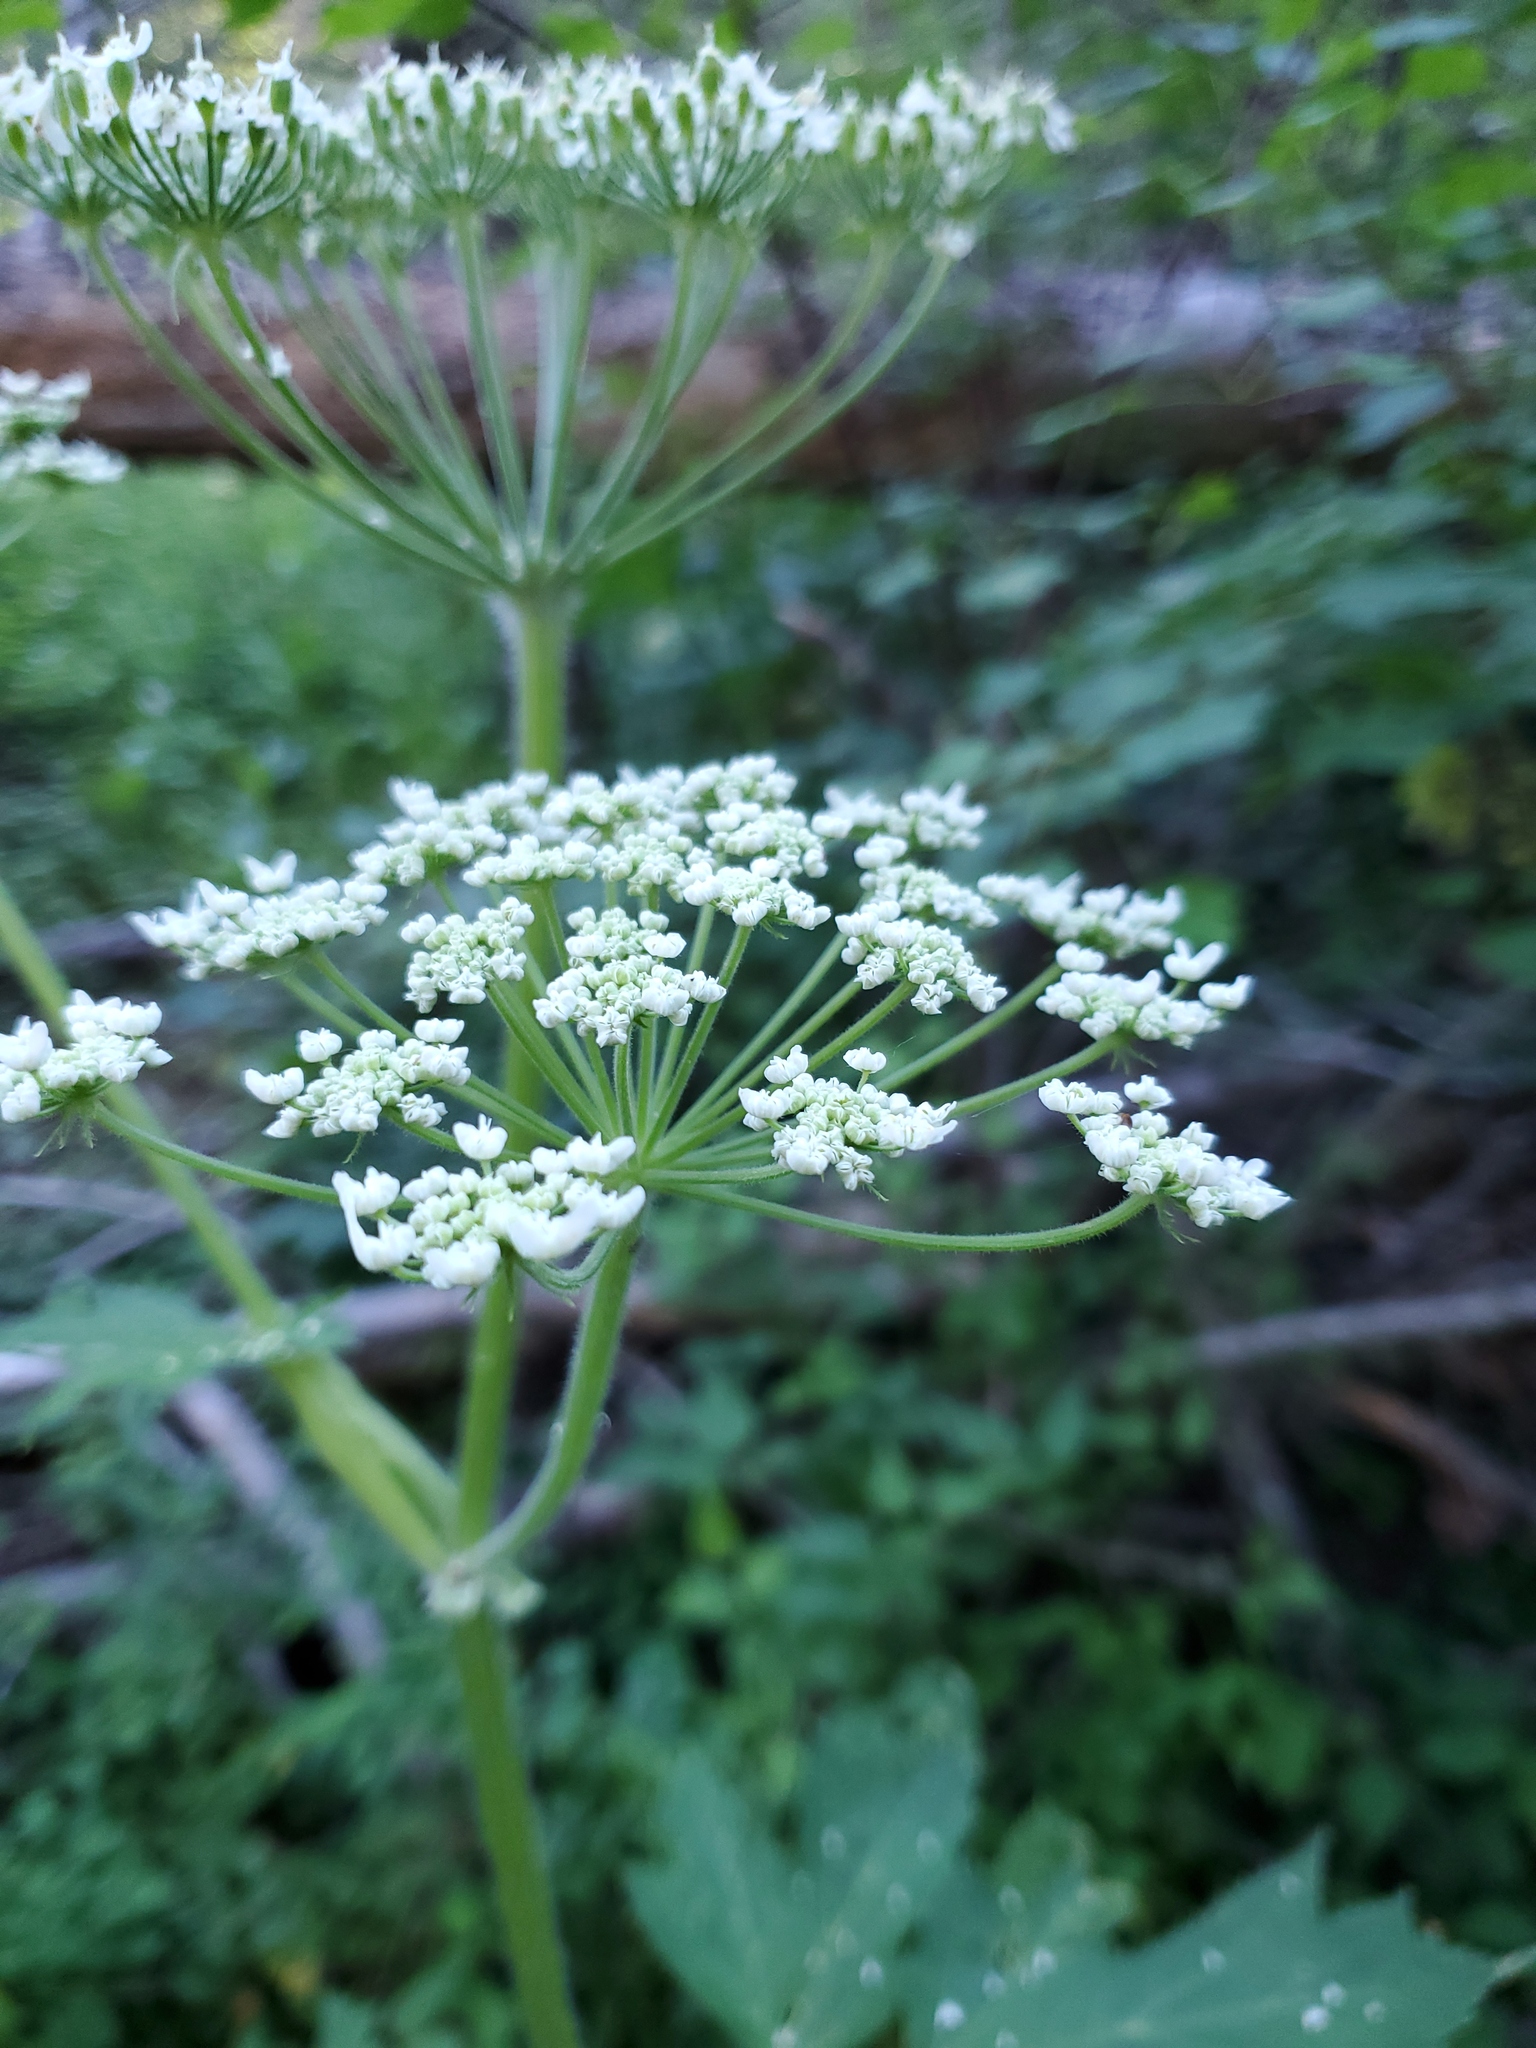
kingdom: Plantae
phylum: Tracheophyta
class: Magnoliopsida
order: Apiales
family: Apiaceae
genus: Heracleum
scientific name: Heracleum maximum
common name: American cow parsnip
